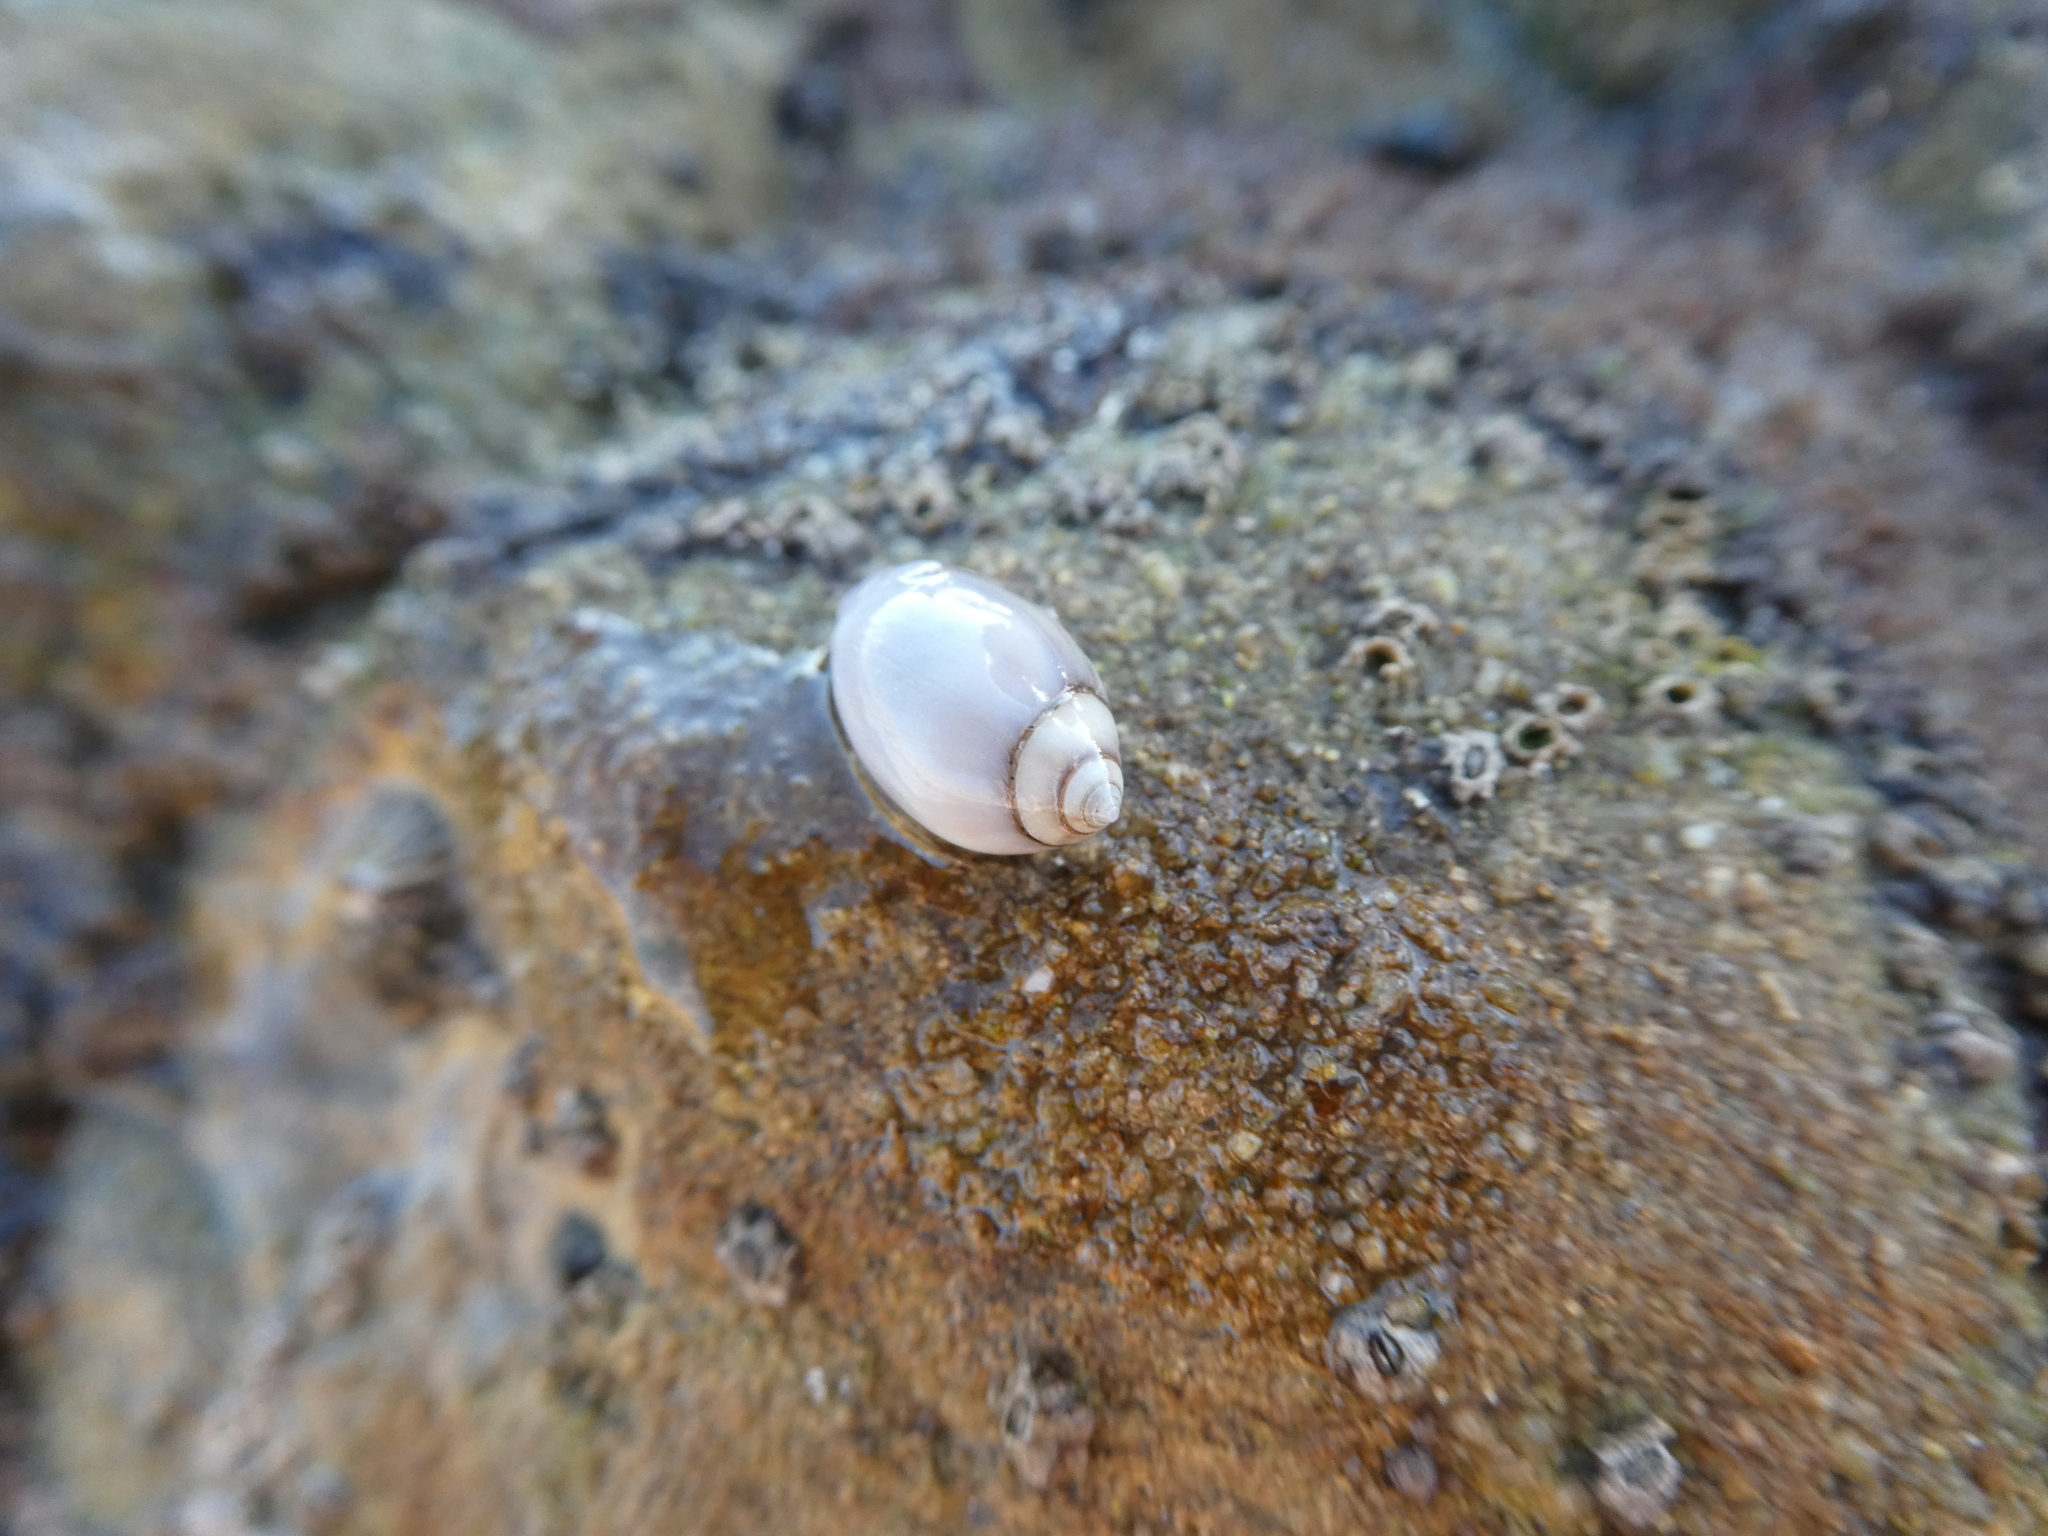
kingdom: Animalia
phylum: Mollusca
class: Gastropoda
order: Neogastropoda
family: Olividae
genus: Callianax
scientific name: Callianax biplicata
